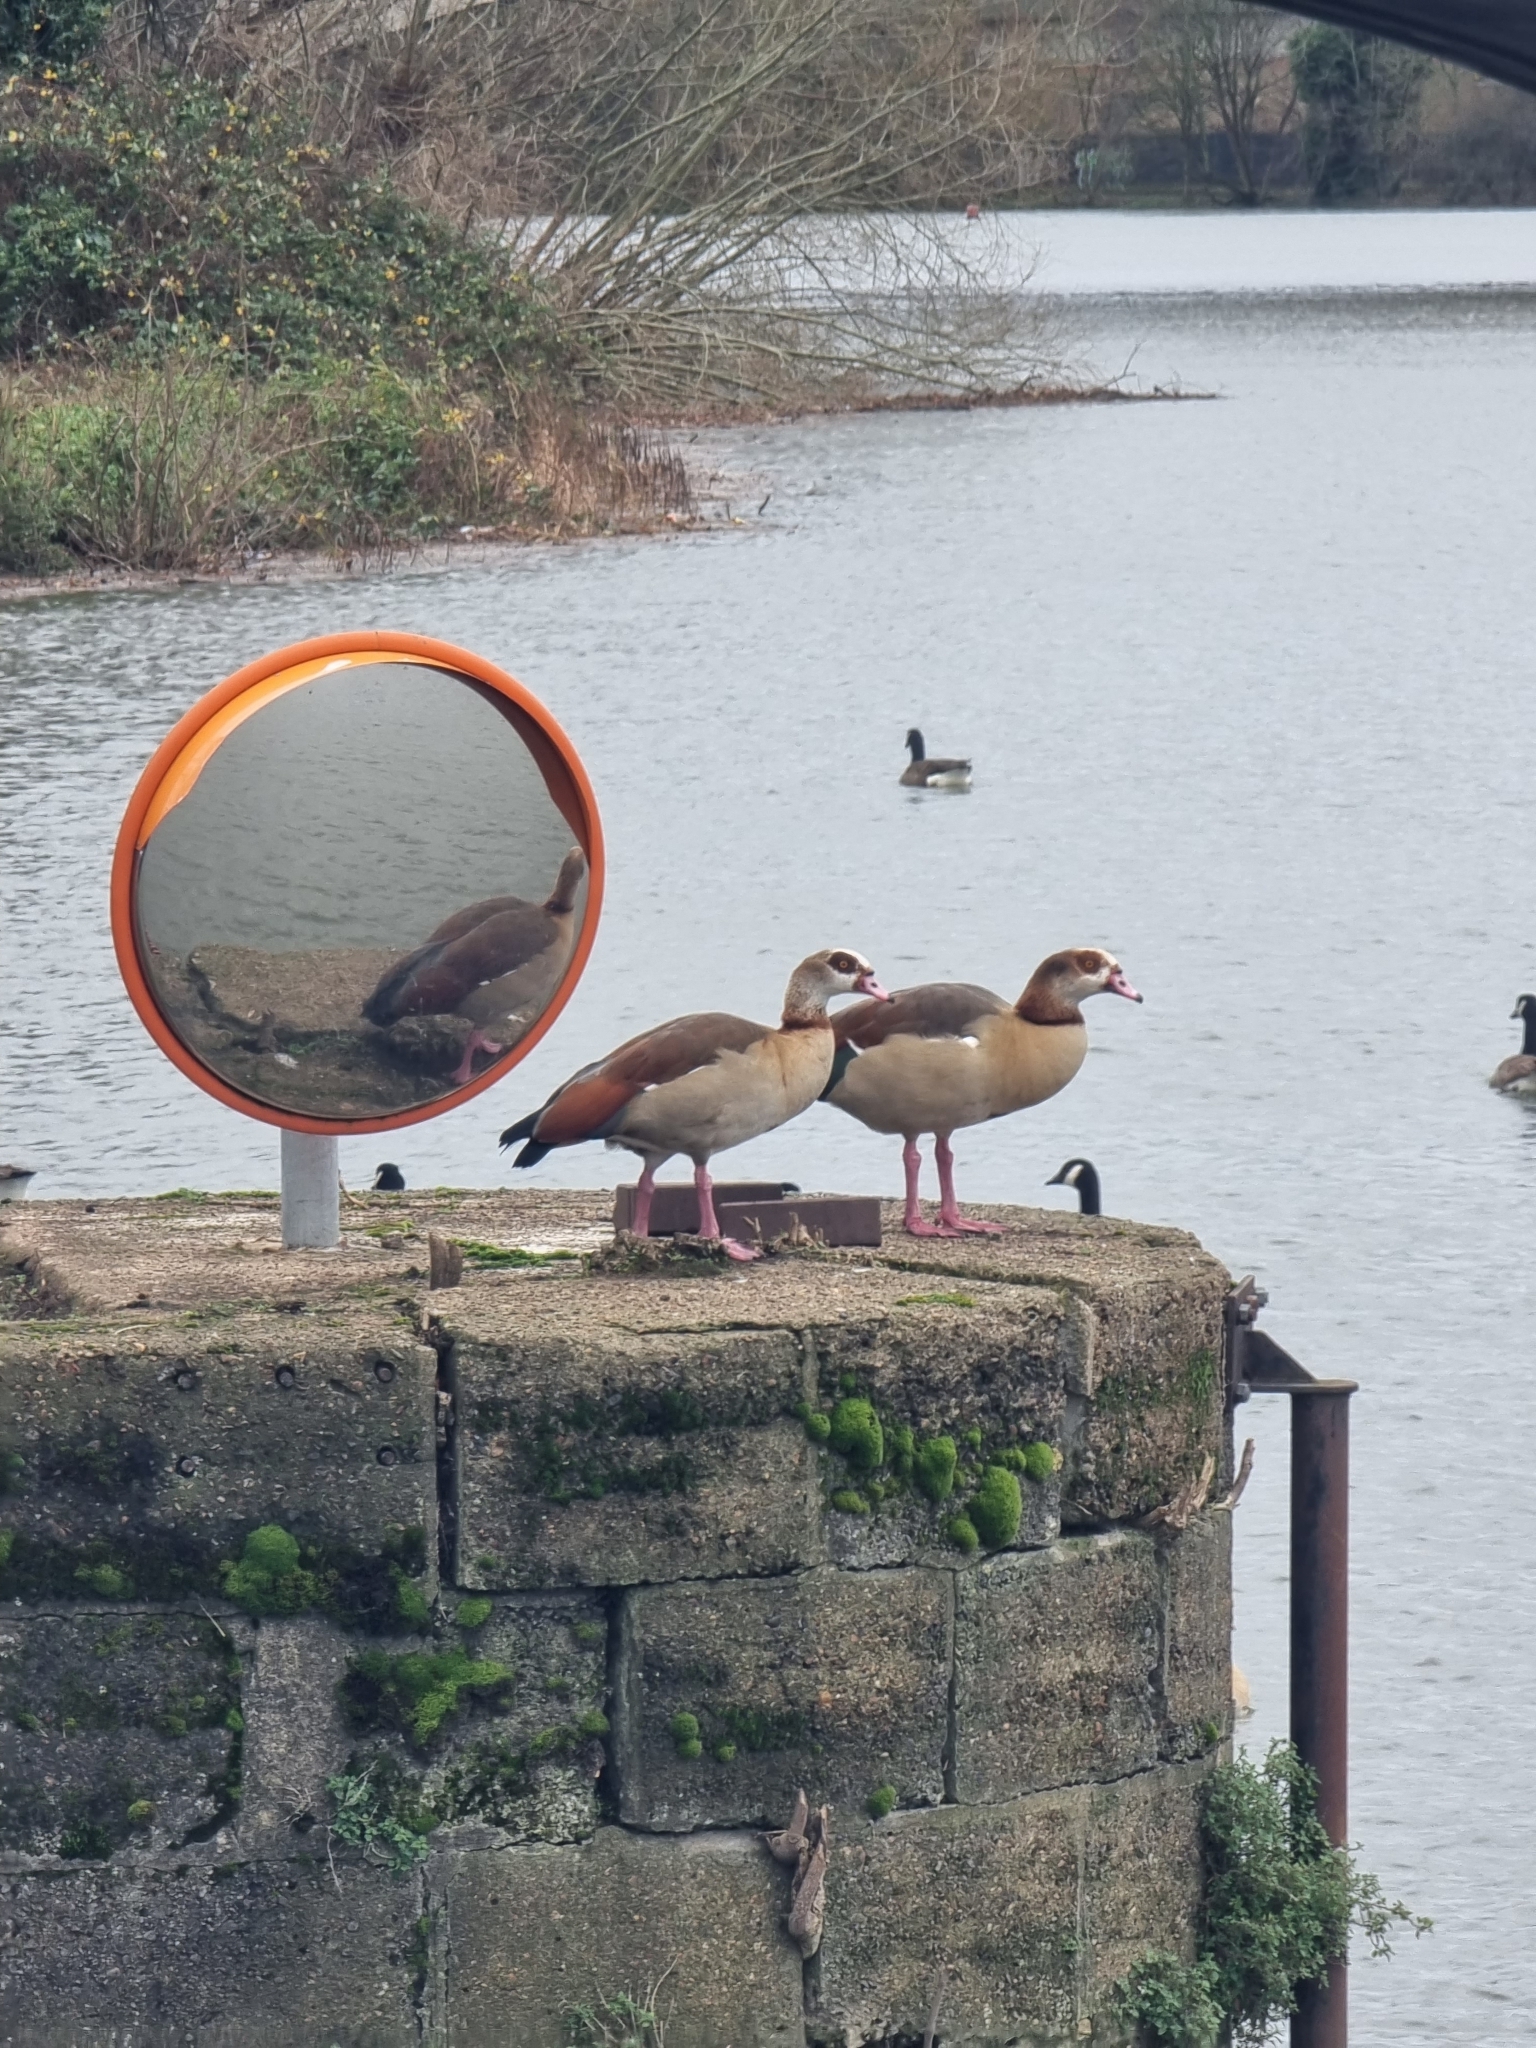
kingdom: Animalia
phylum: Chordata
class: Aves
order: Anseriformes
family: Anatidae
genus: Alopochen
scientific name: Alopochen aegyptiaca
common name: Egyptian goose
